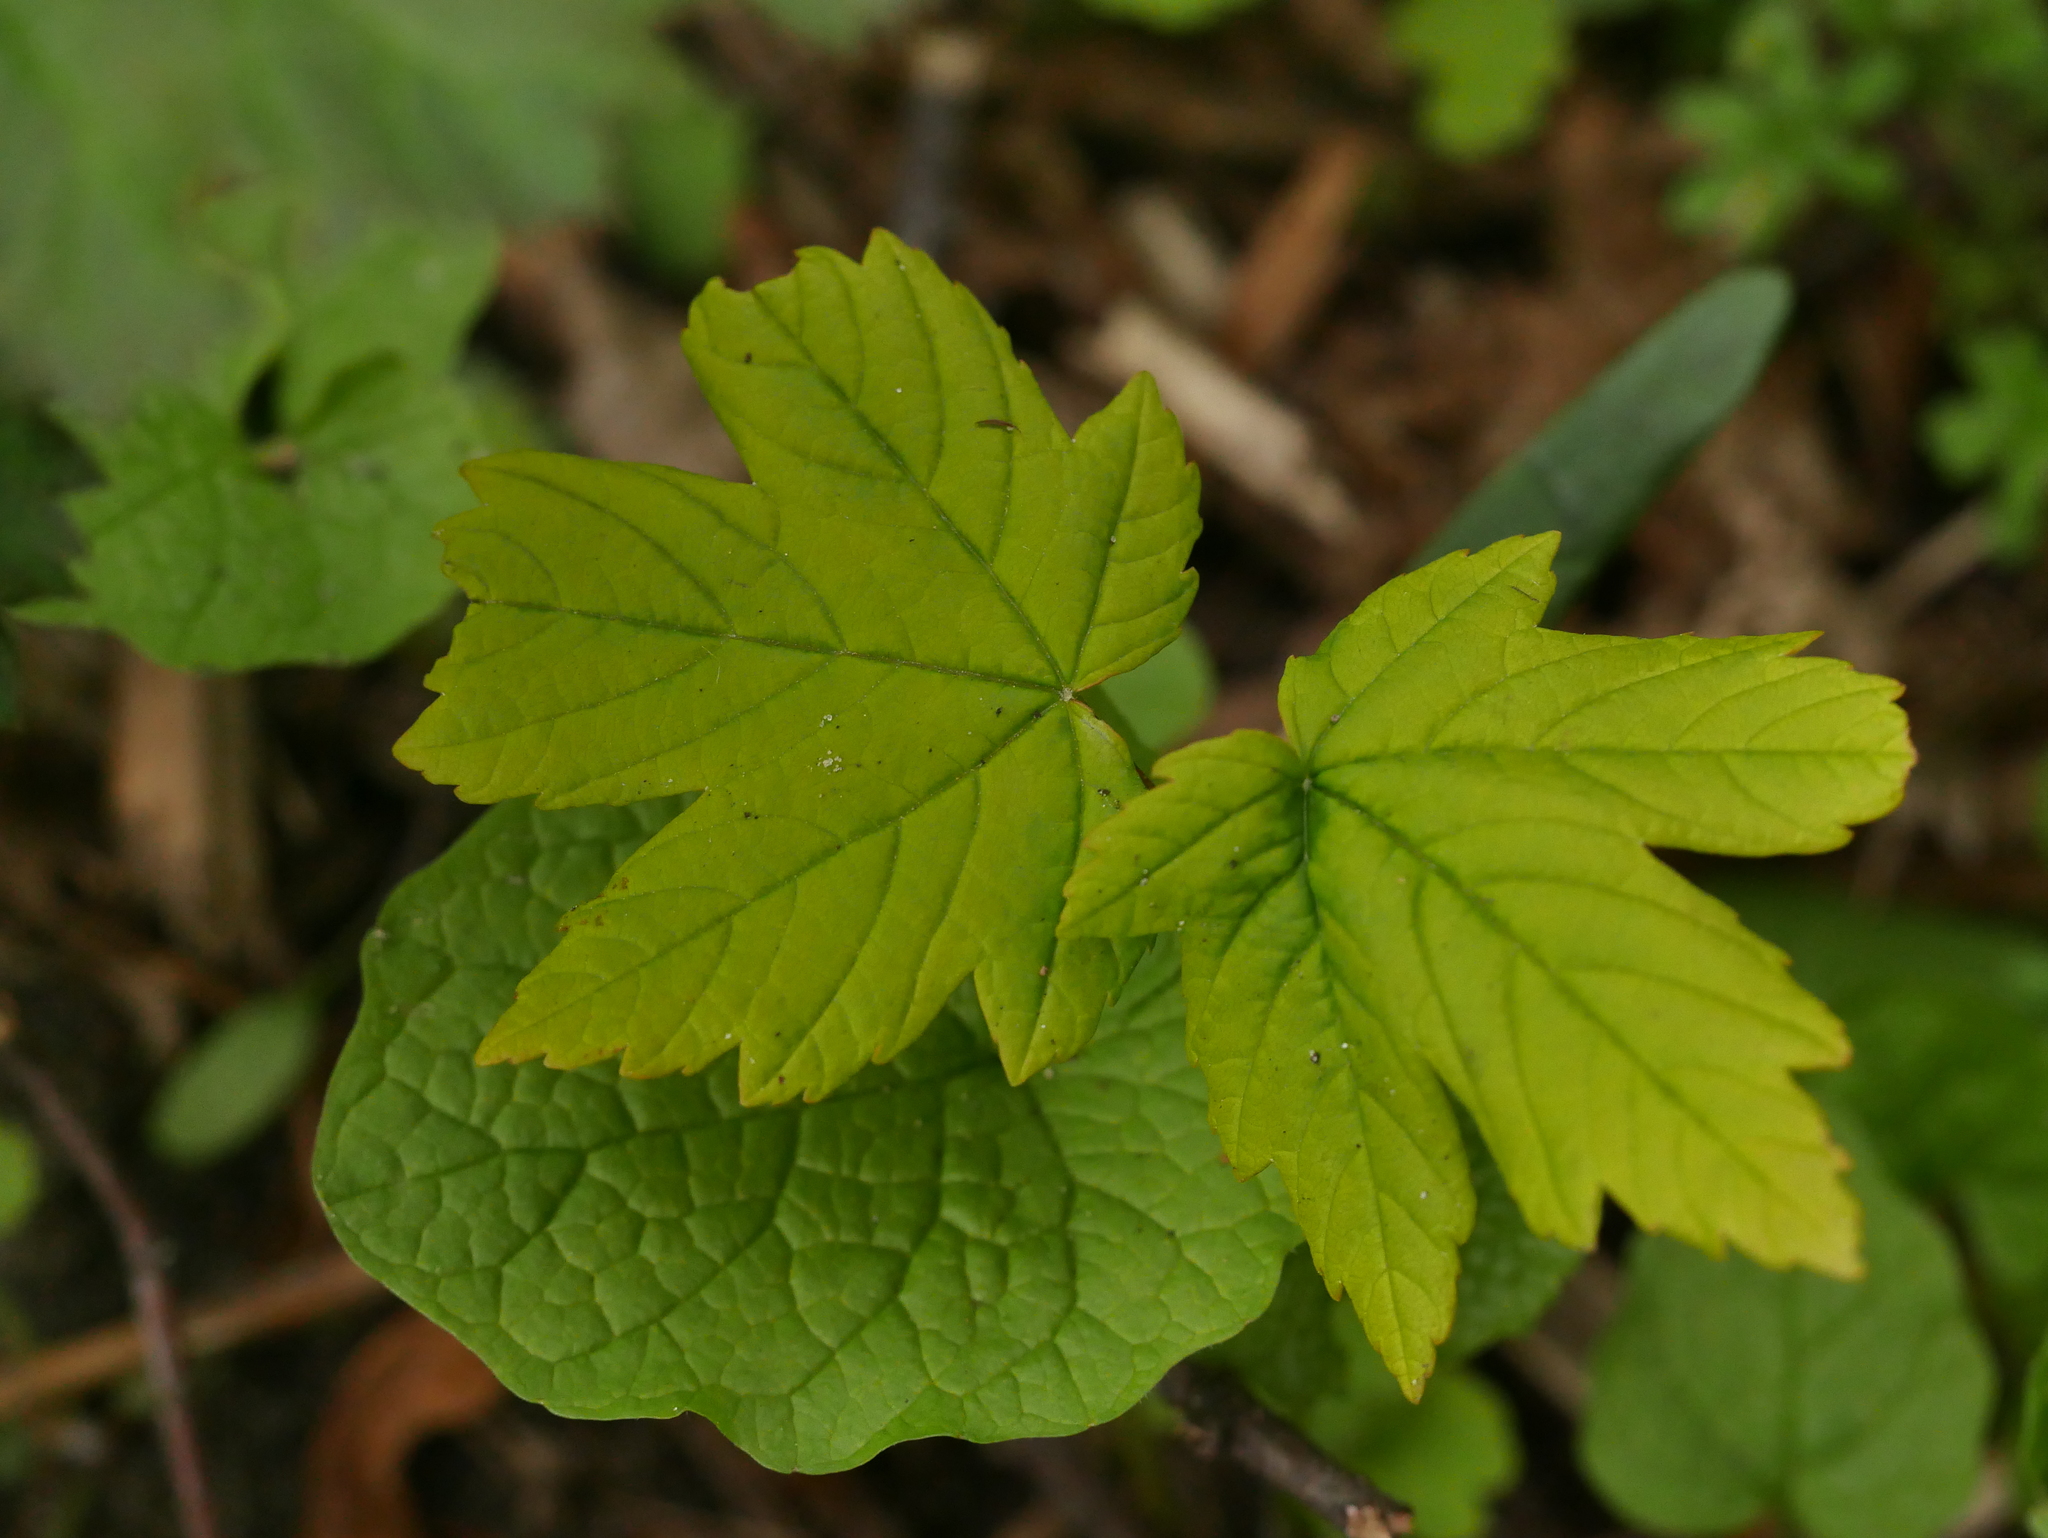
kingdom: Plantae
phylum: Tracheophyta
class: Magnoliopsida
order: Sapindales
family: Sapindaceae
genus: Acer
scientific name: Acer pseudoplatanus
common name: Sycamore
